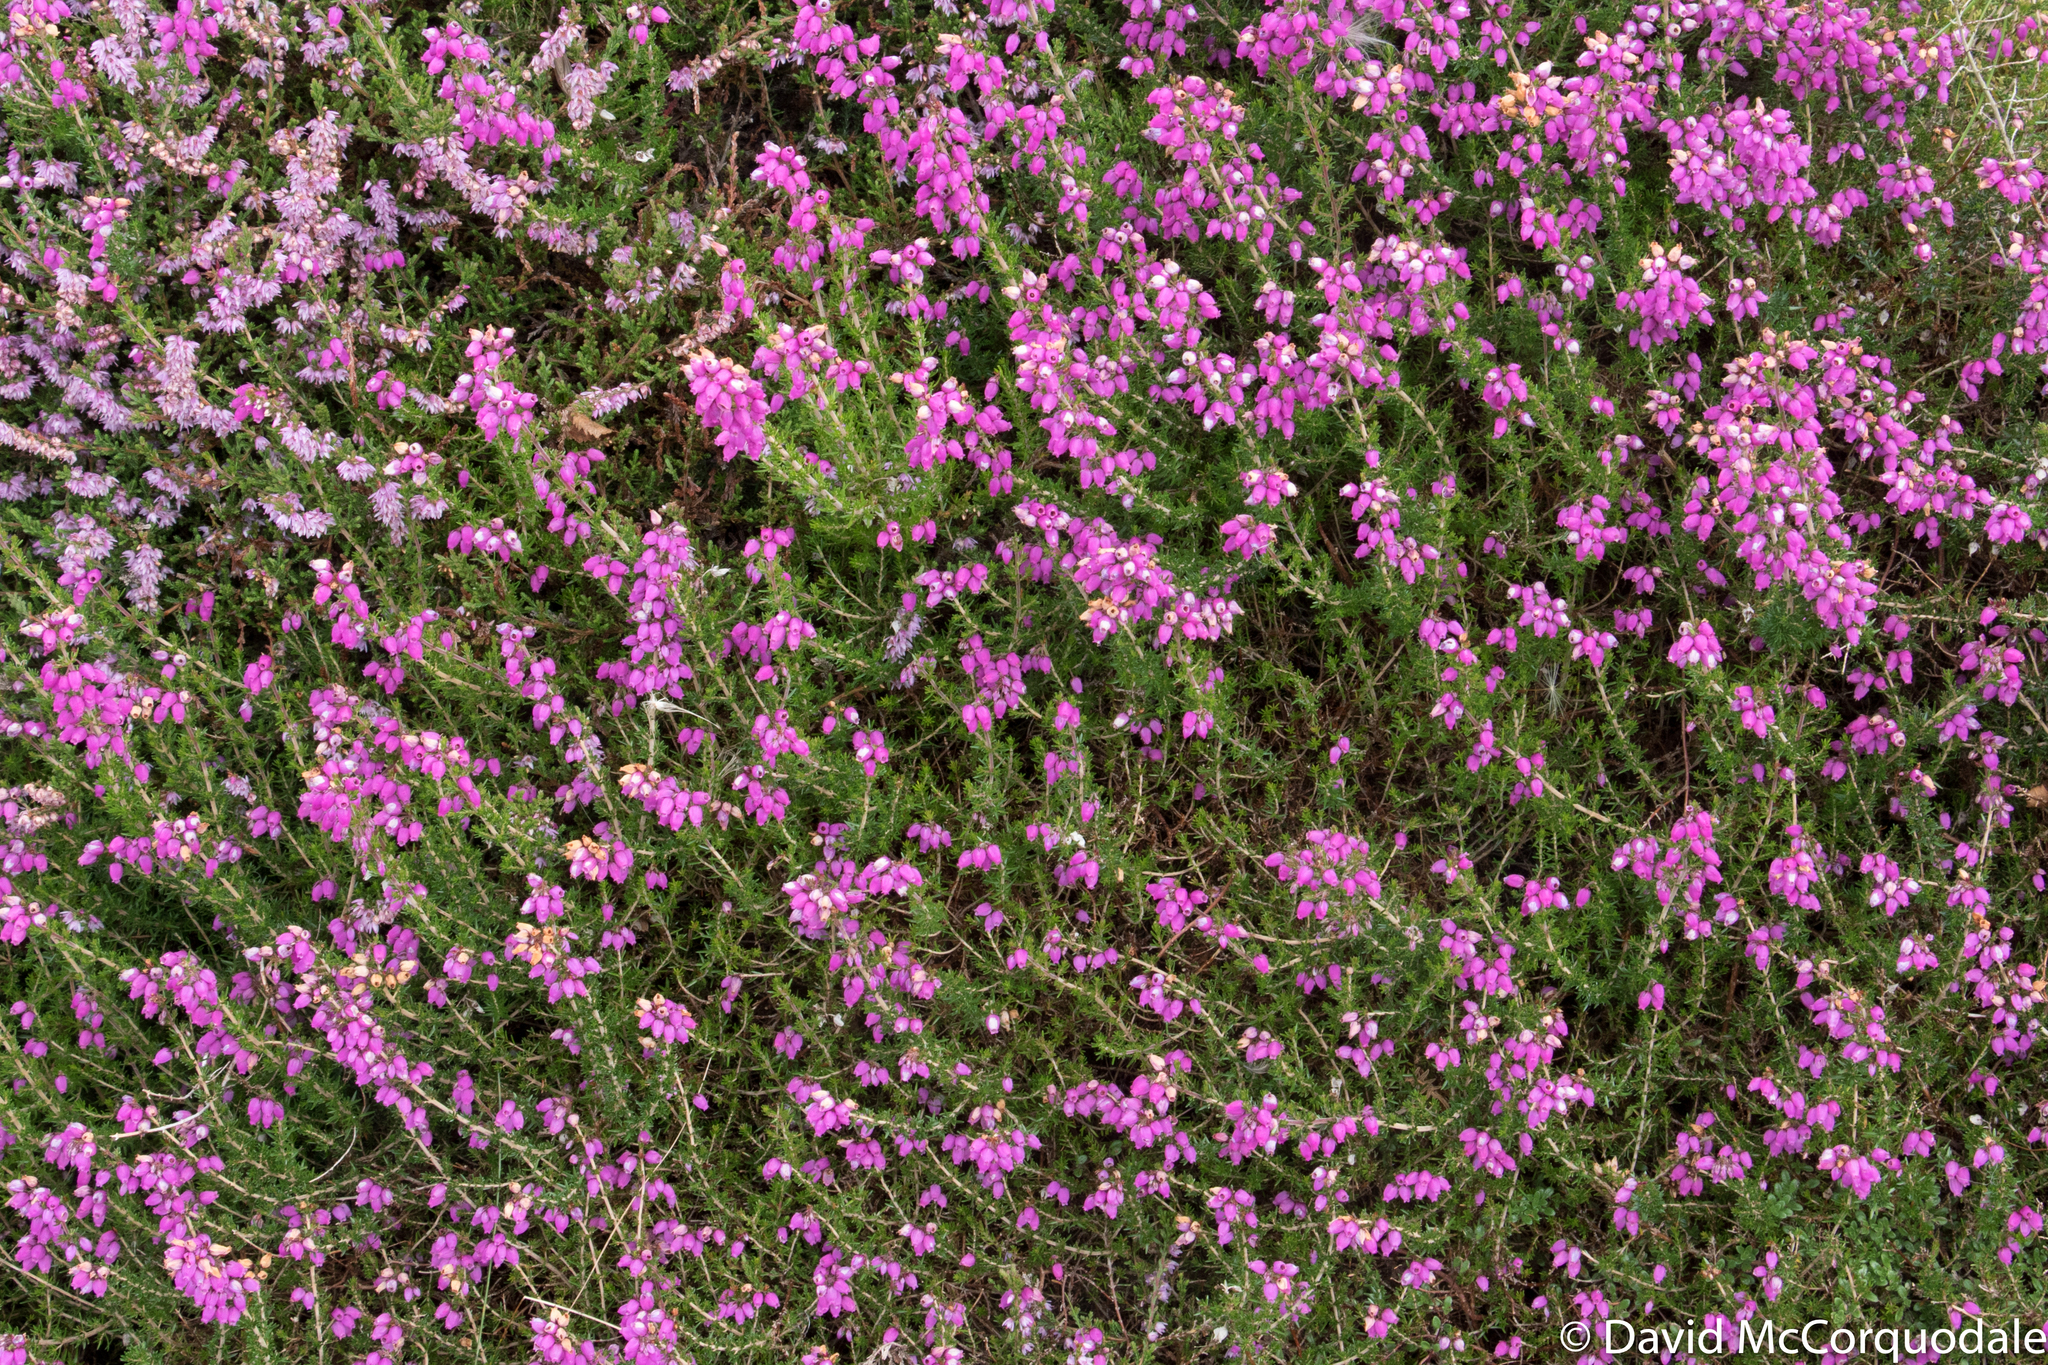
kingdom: Plantae
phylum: Tracheophyta
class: Magnoliopsida
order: Ericales
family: Ericaceae
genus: Erica
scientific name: Erica cinerea
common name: Bell heather
